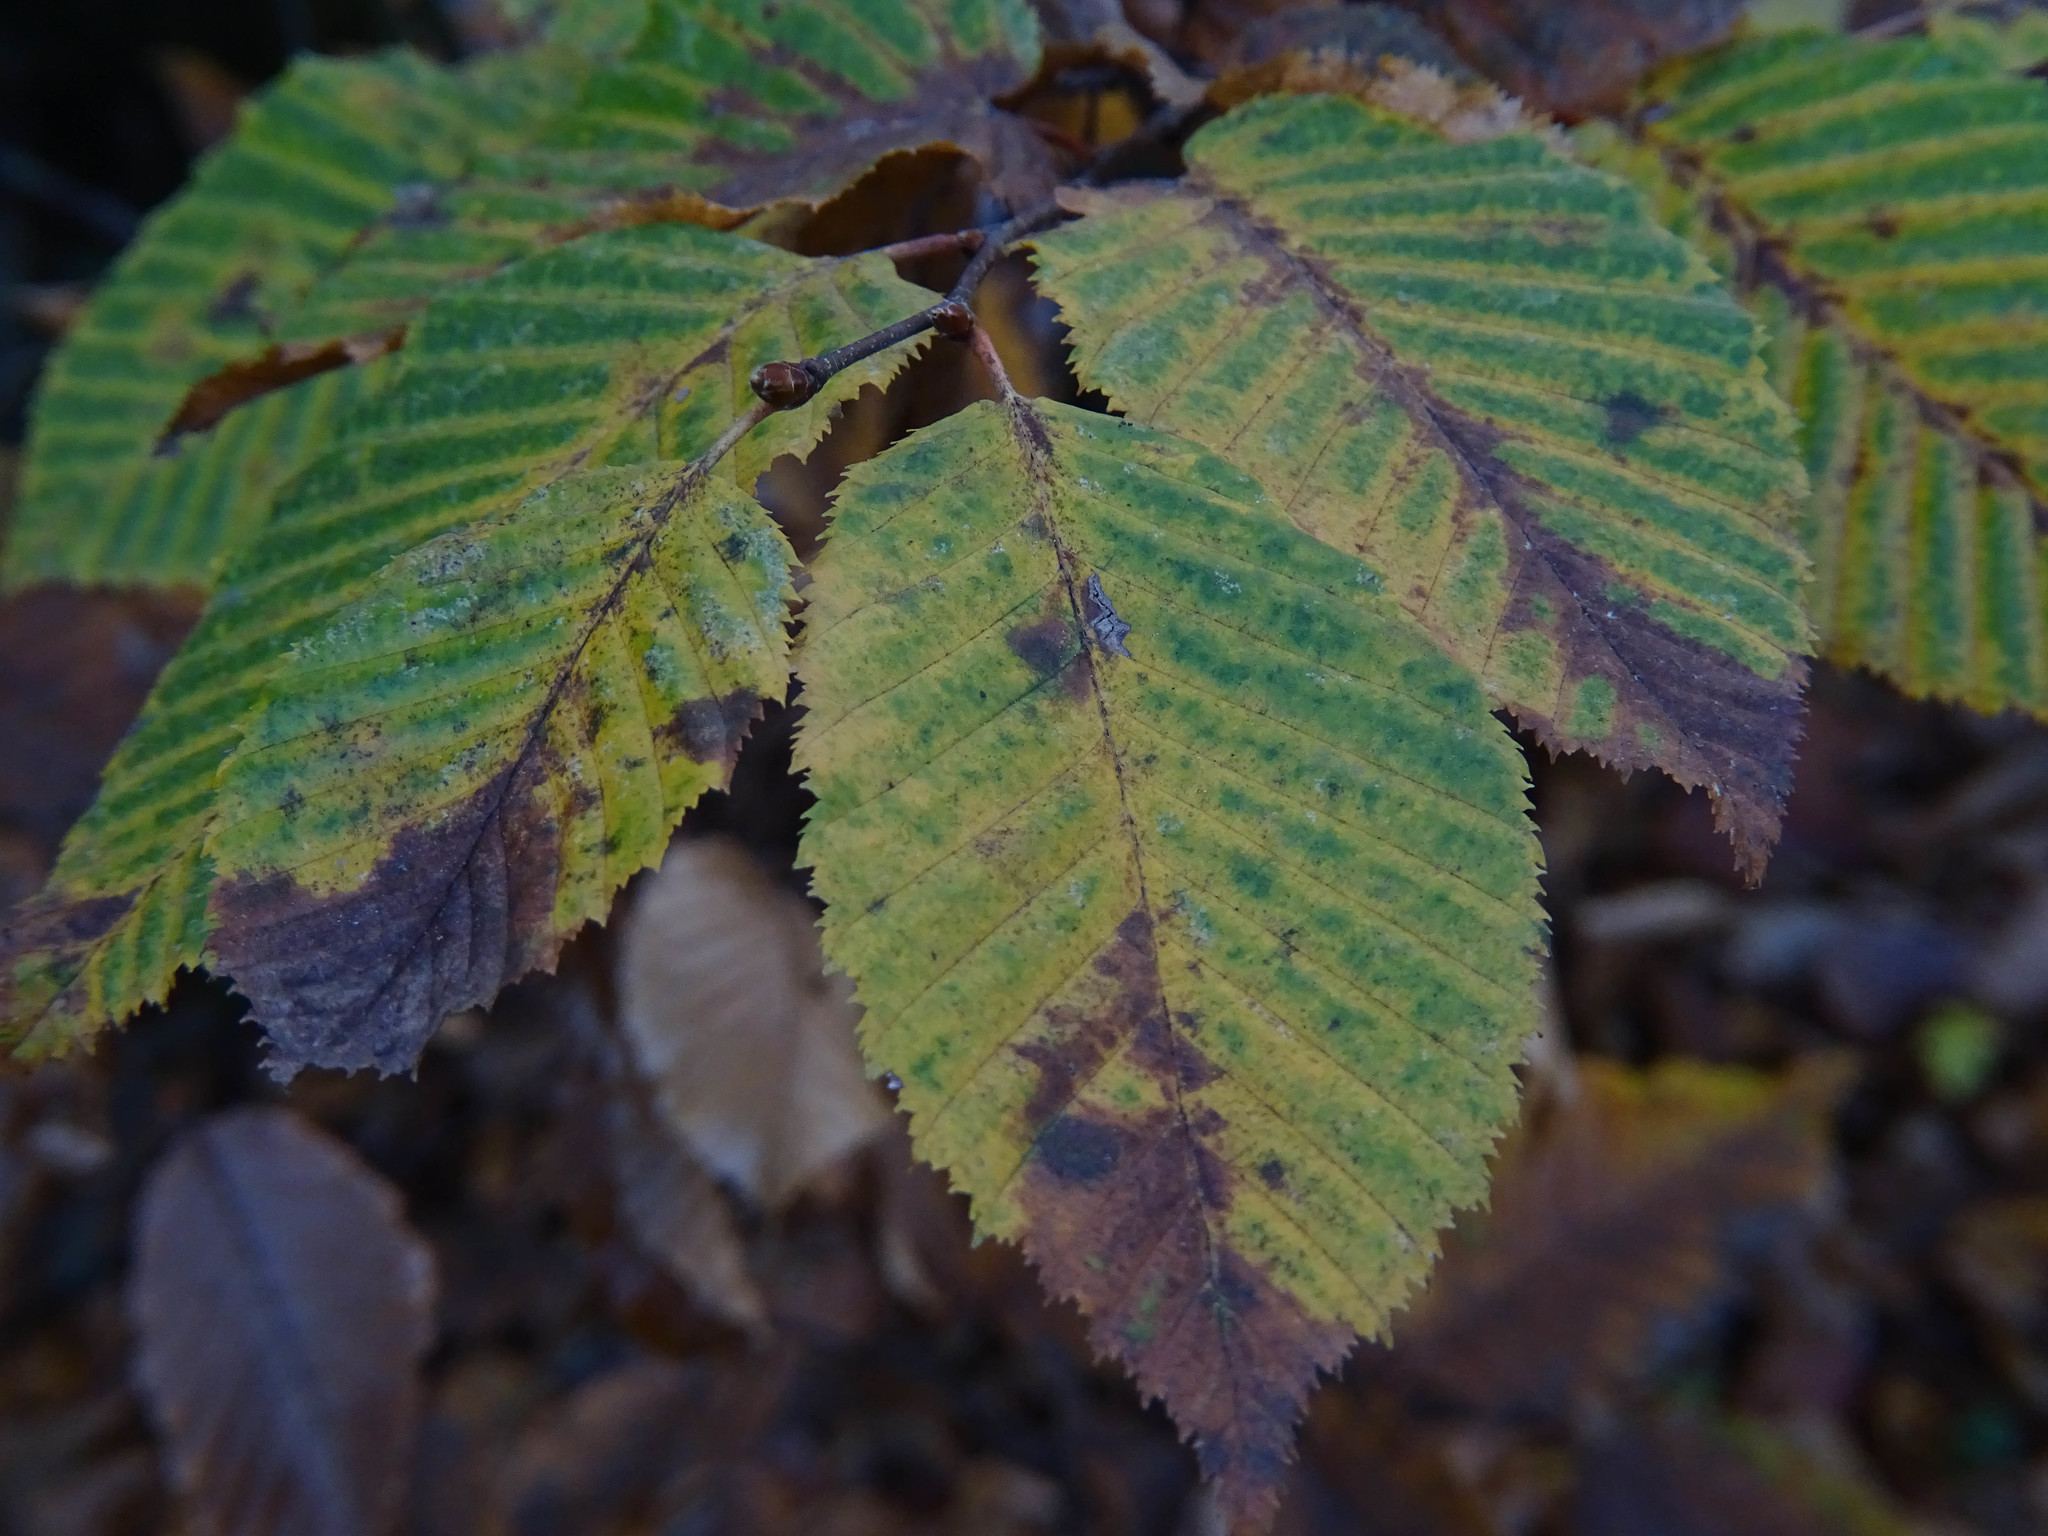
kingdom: Plantae
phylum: Tracheophyta
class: Magnoliopsida
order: Fagales
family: Betulaceae
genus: Carpinus
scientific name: Carpinus betulus
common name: Hornbeam
